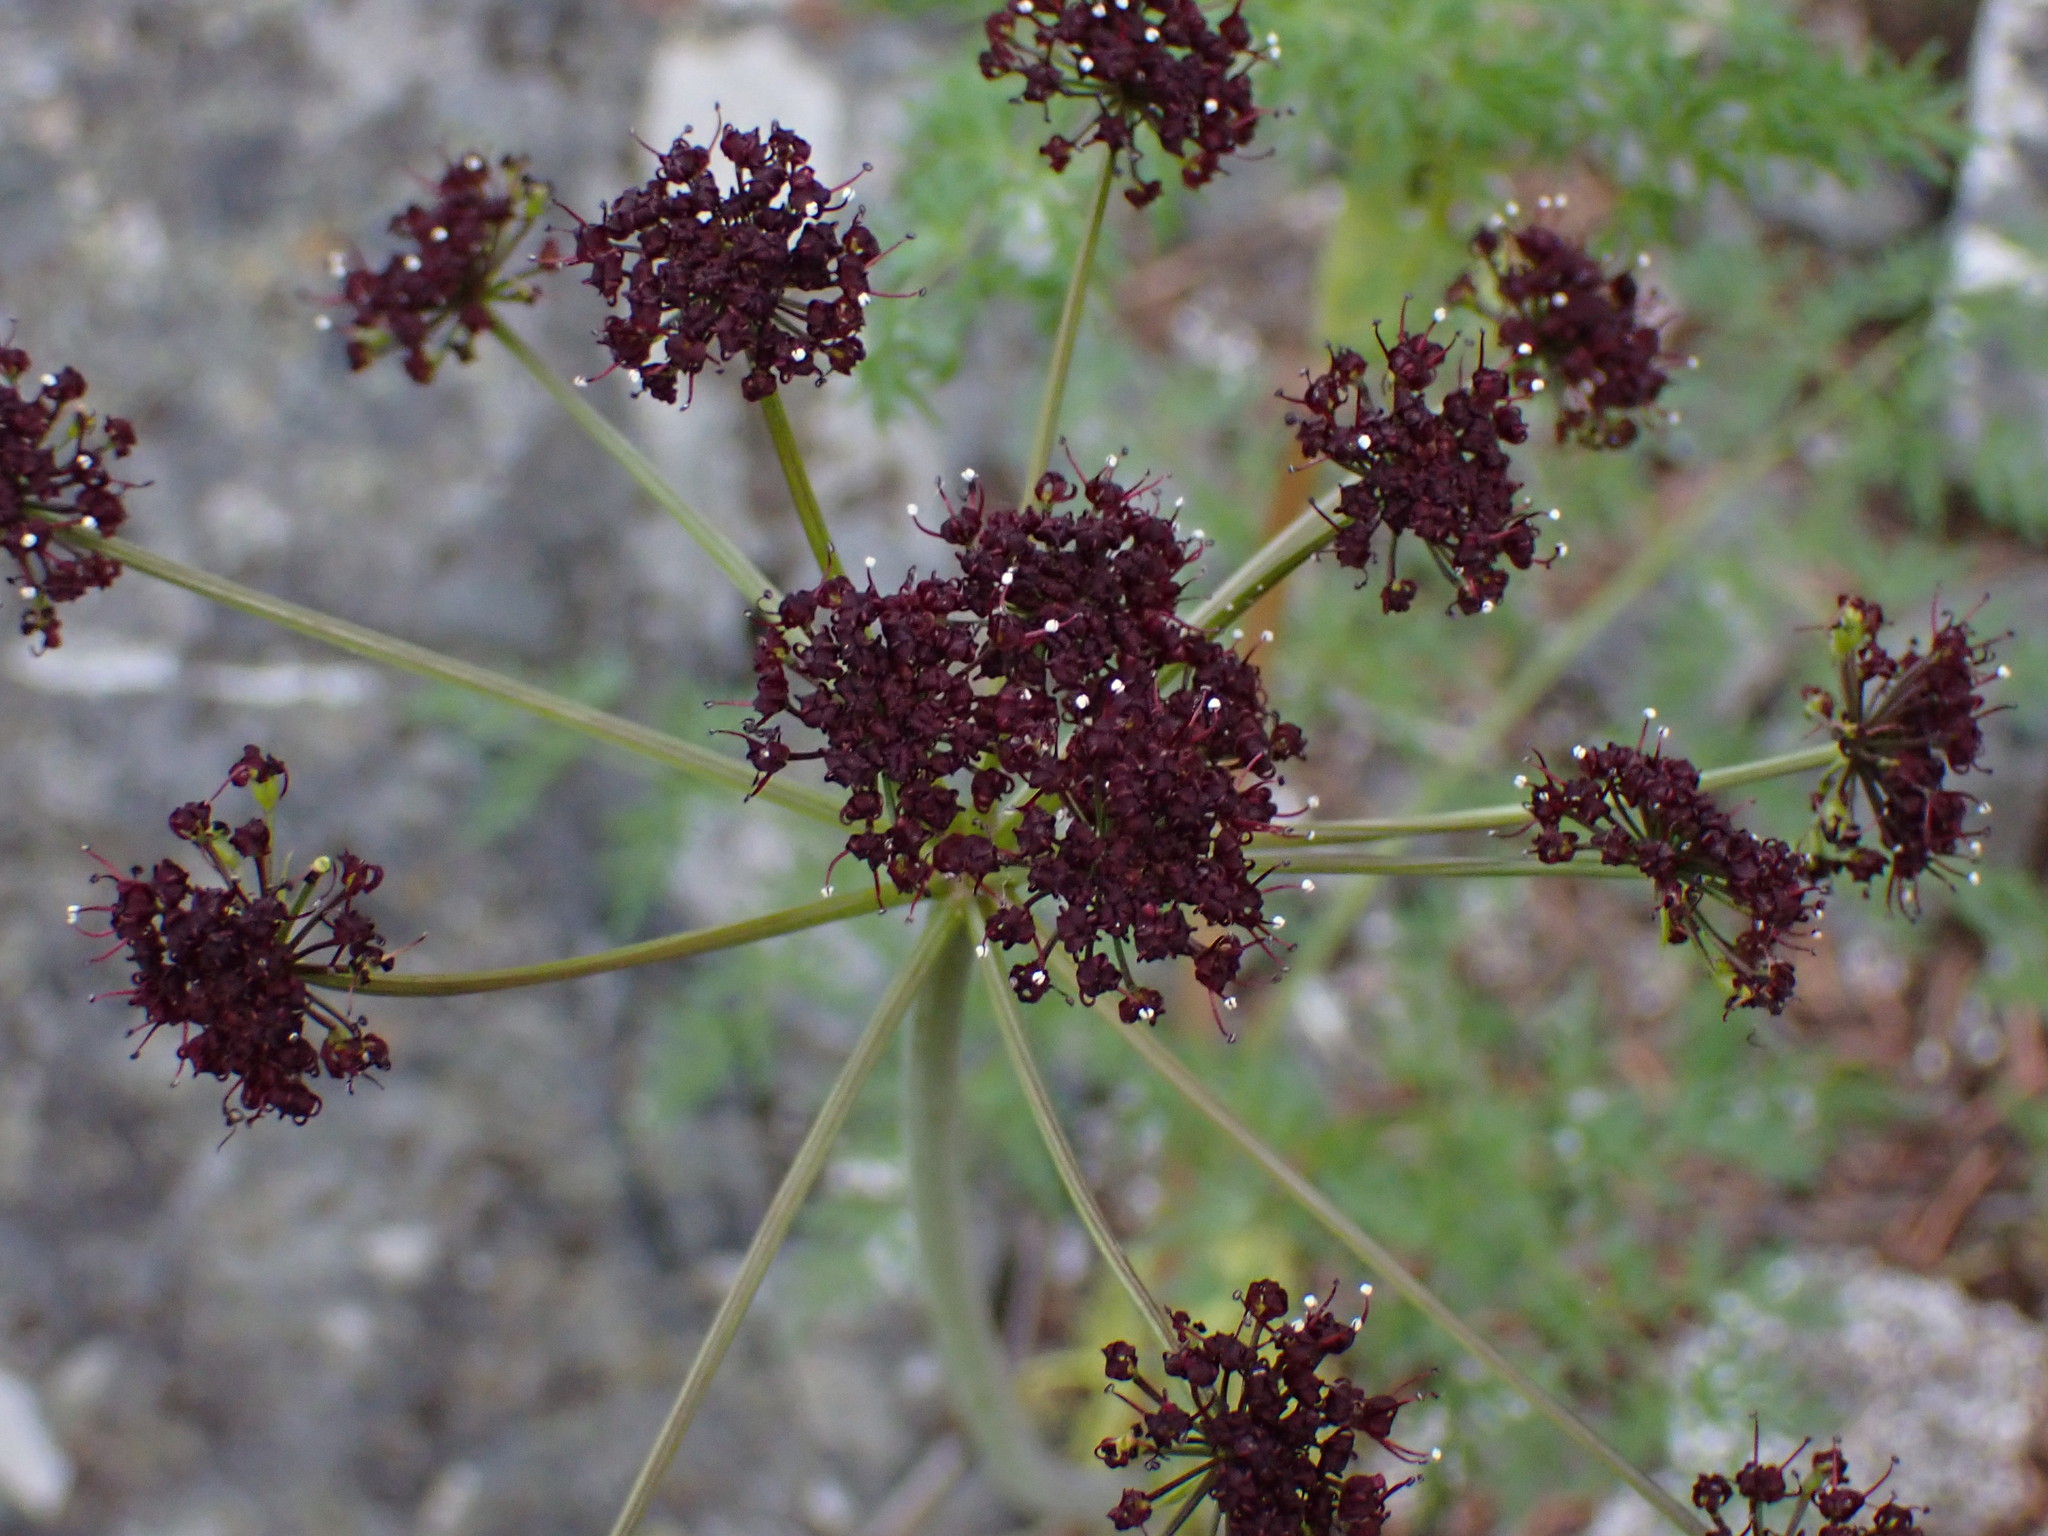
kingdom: Plantae
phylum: Tracheophyta
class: Magnoliopsida
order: Apiales
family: Apiaceae
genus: Lomatium
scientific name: Lomatium multifidum
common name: Carrot-leaved biscuitroot
